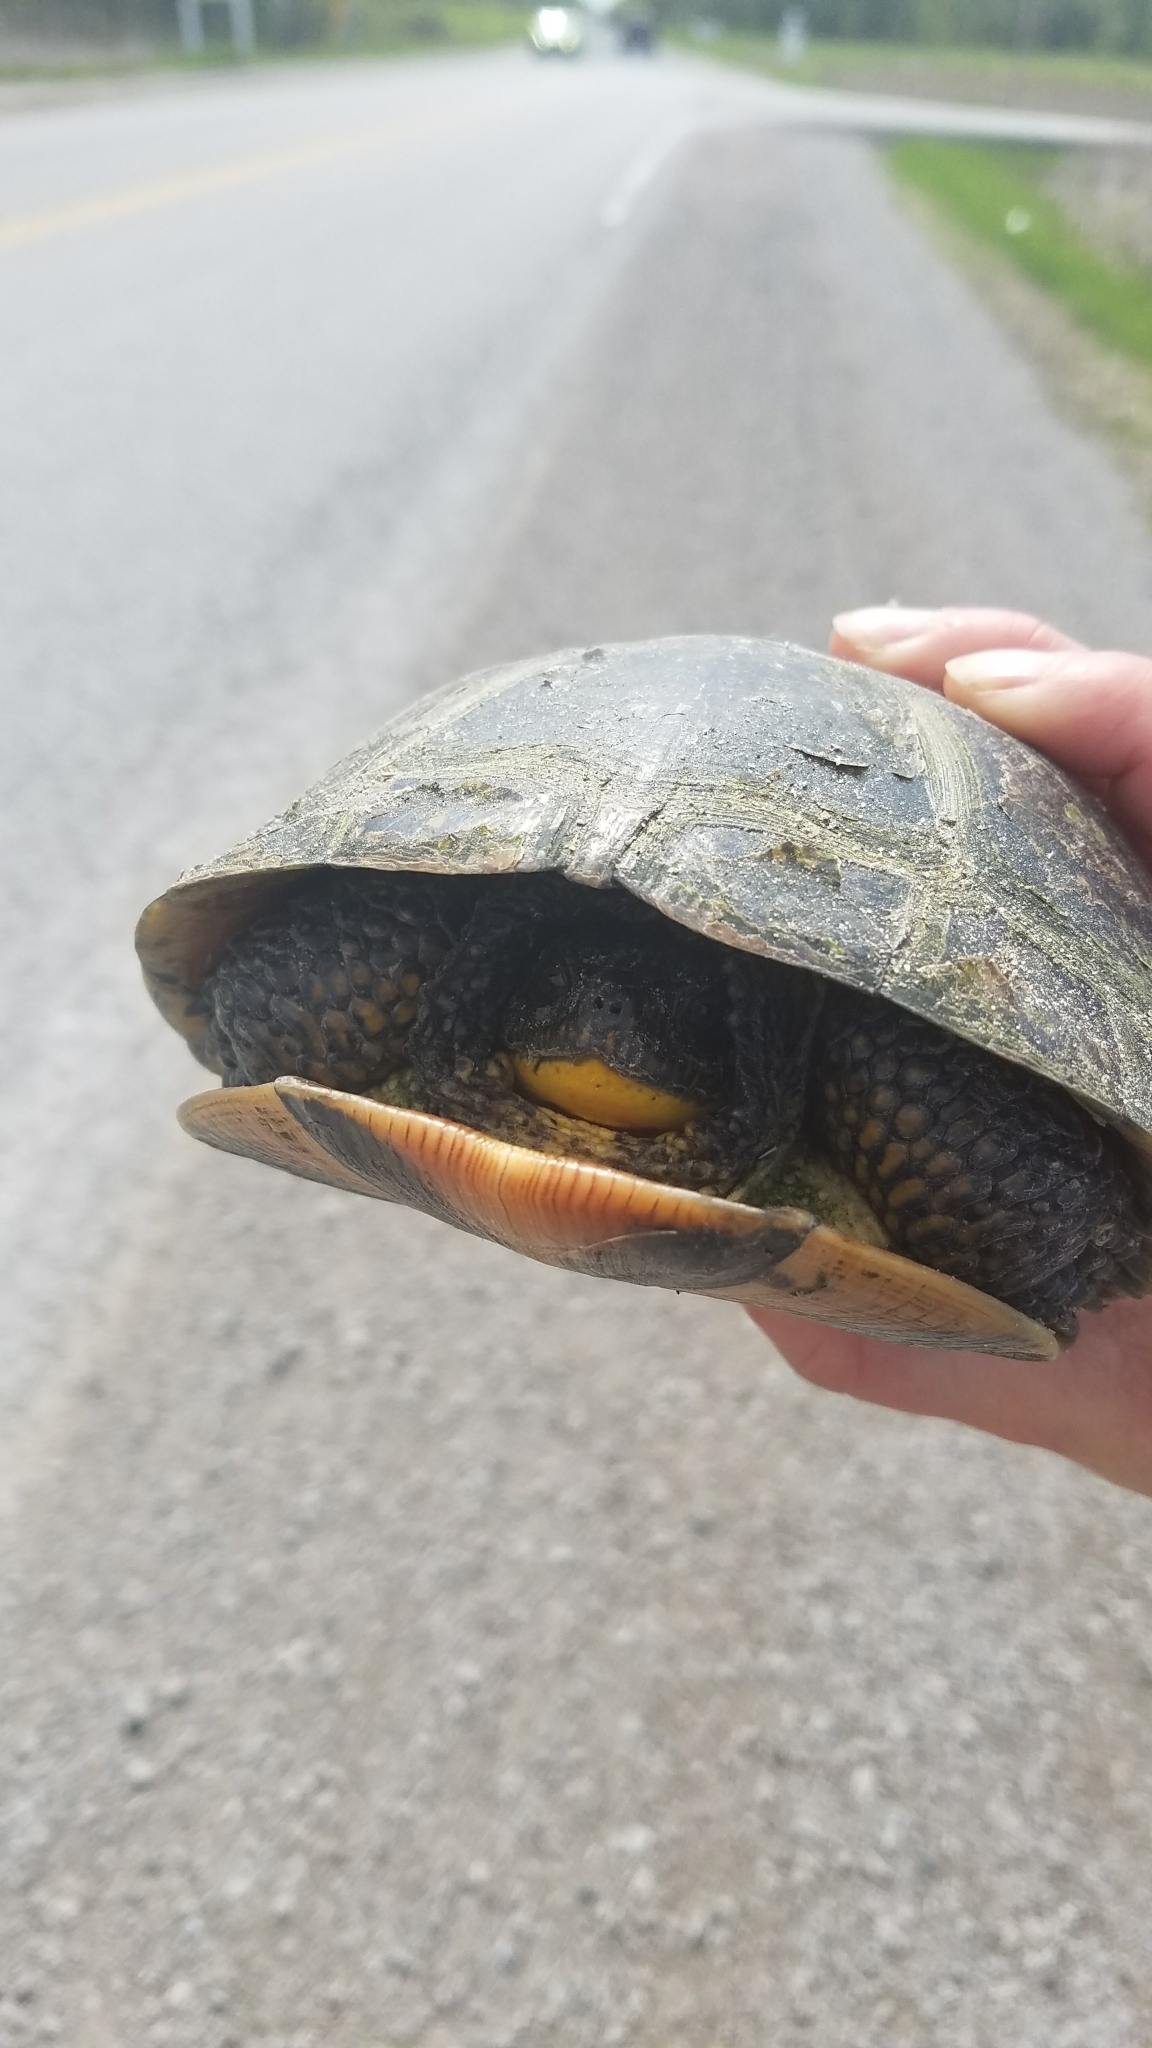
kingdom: Animalia
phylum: Chordata
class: Testudines
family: Emydidae
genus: Emys
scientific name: Emys blandingii
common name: Blanding's turtle
